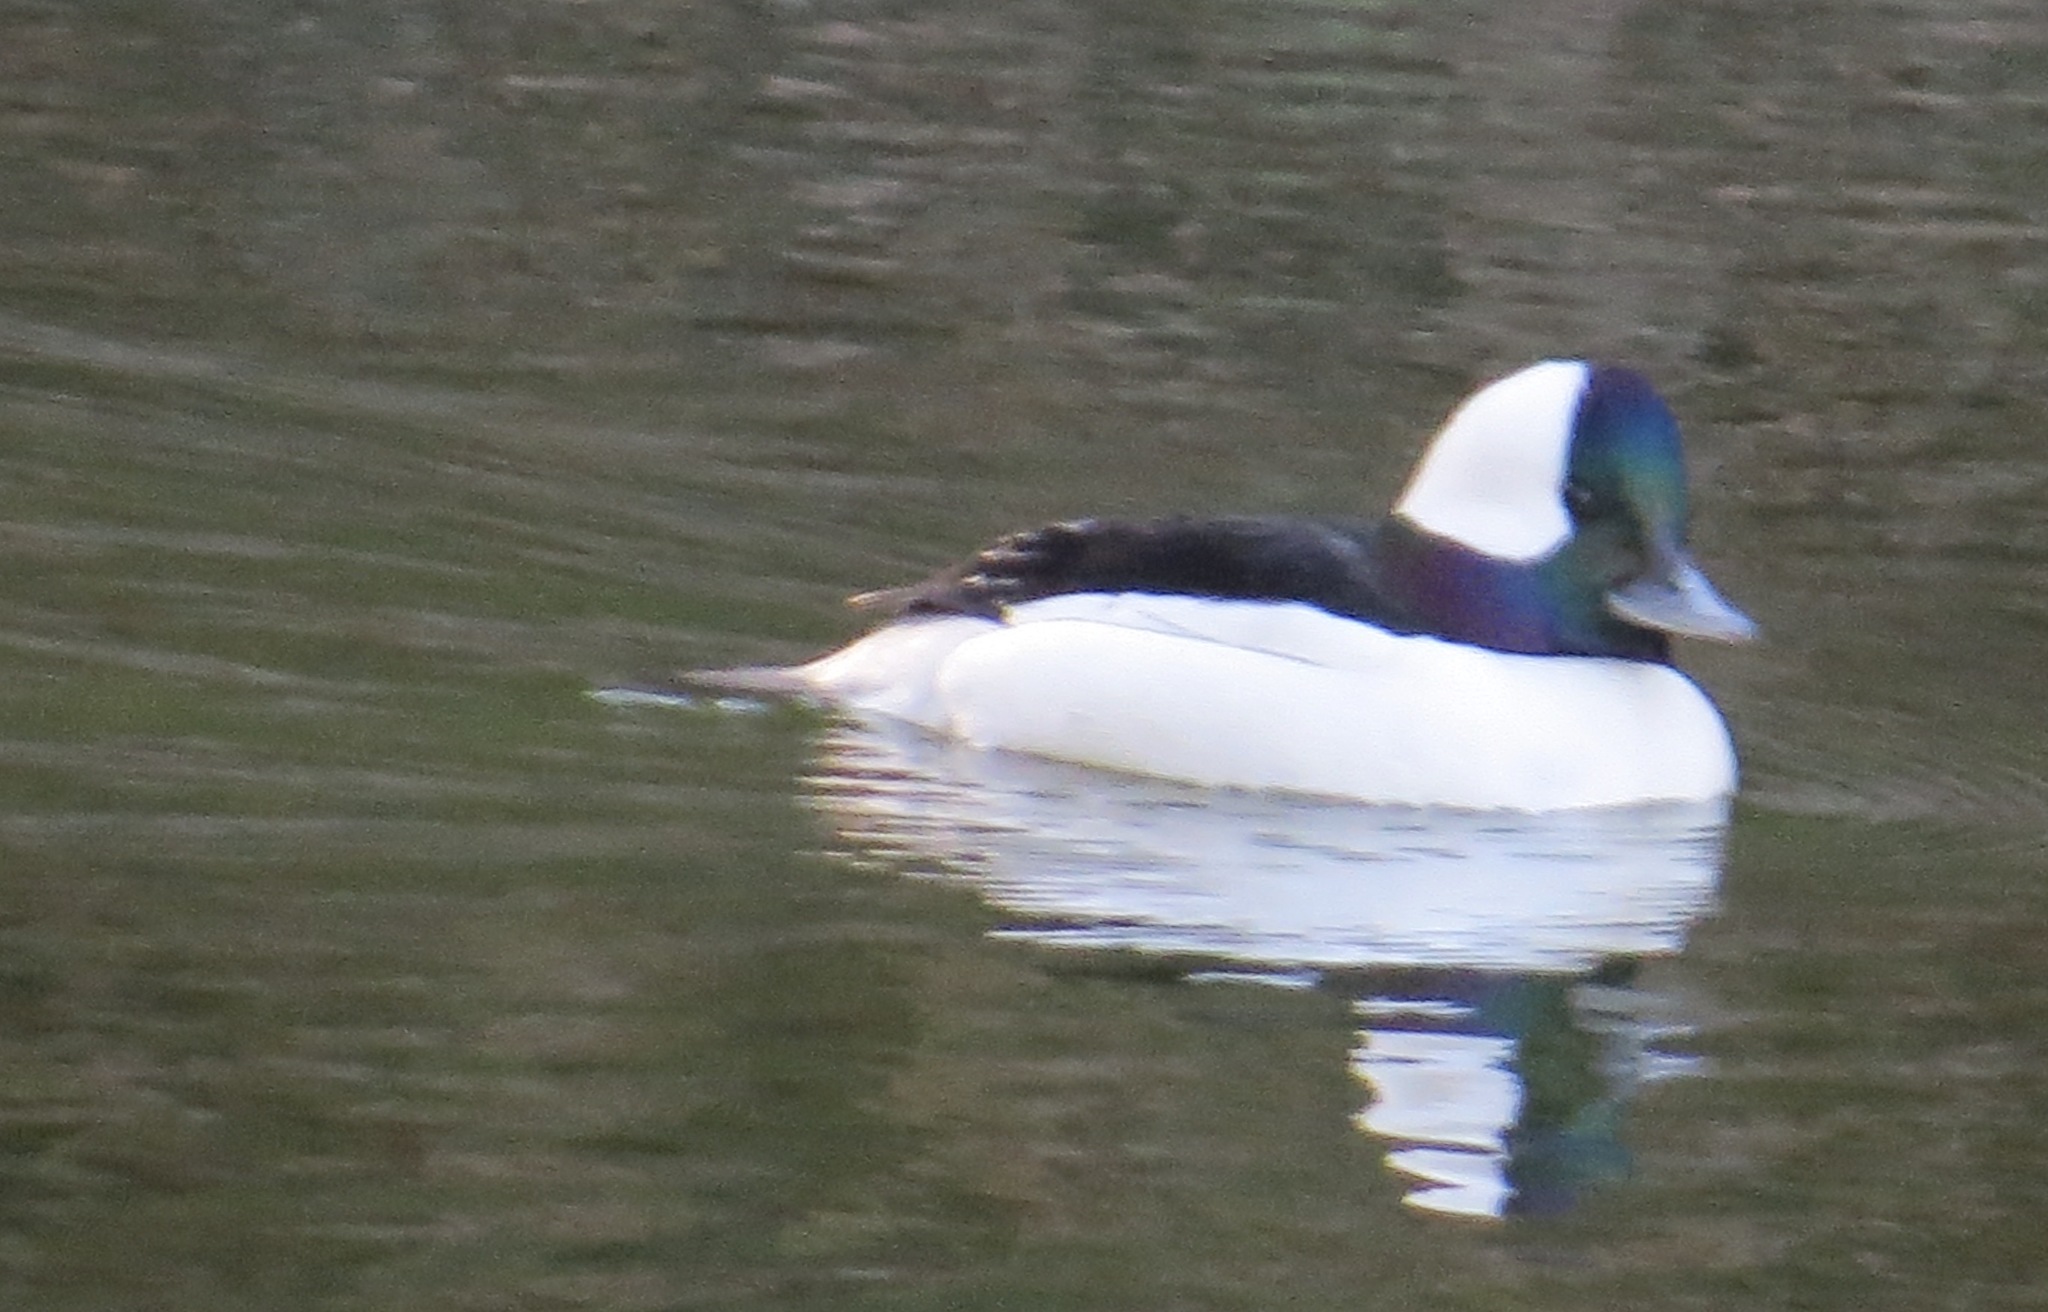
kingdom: Animalia
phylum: Chordata
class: Aves
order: Anseriformes
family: Anatidae
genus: Bucephala
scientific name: Bucephala albeola
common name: Bufflehead
